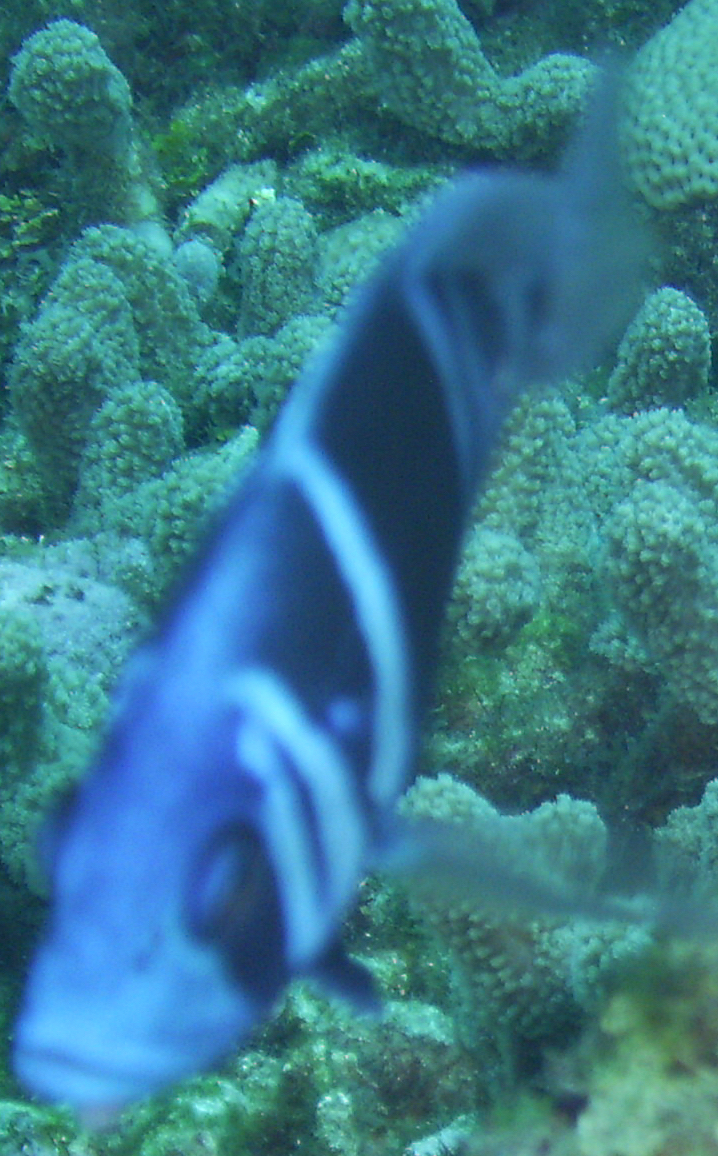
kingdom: Animalia
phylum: Chordata
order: Perciformes
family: Serranidae
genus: Hypoplectrus
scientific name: Hypoplectrus indigo
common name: Indigo hamlet
